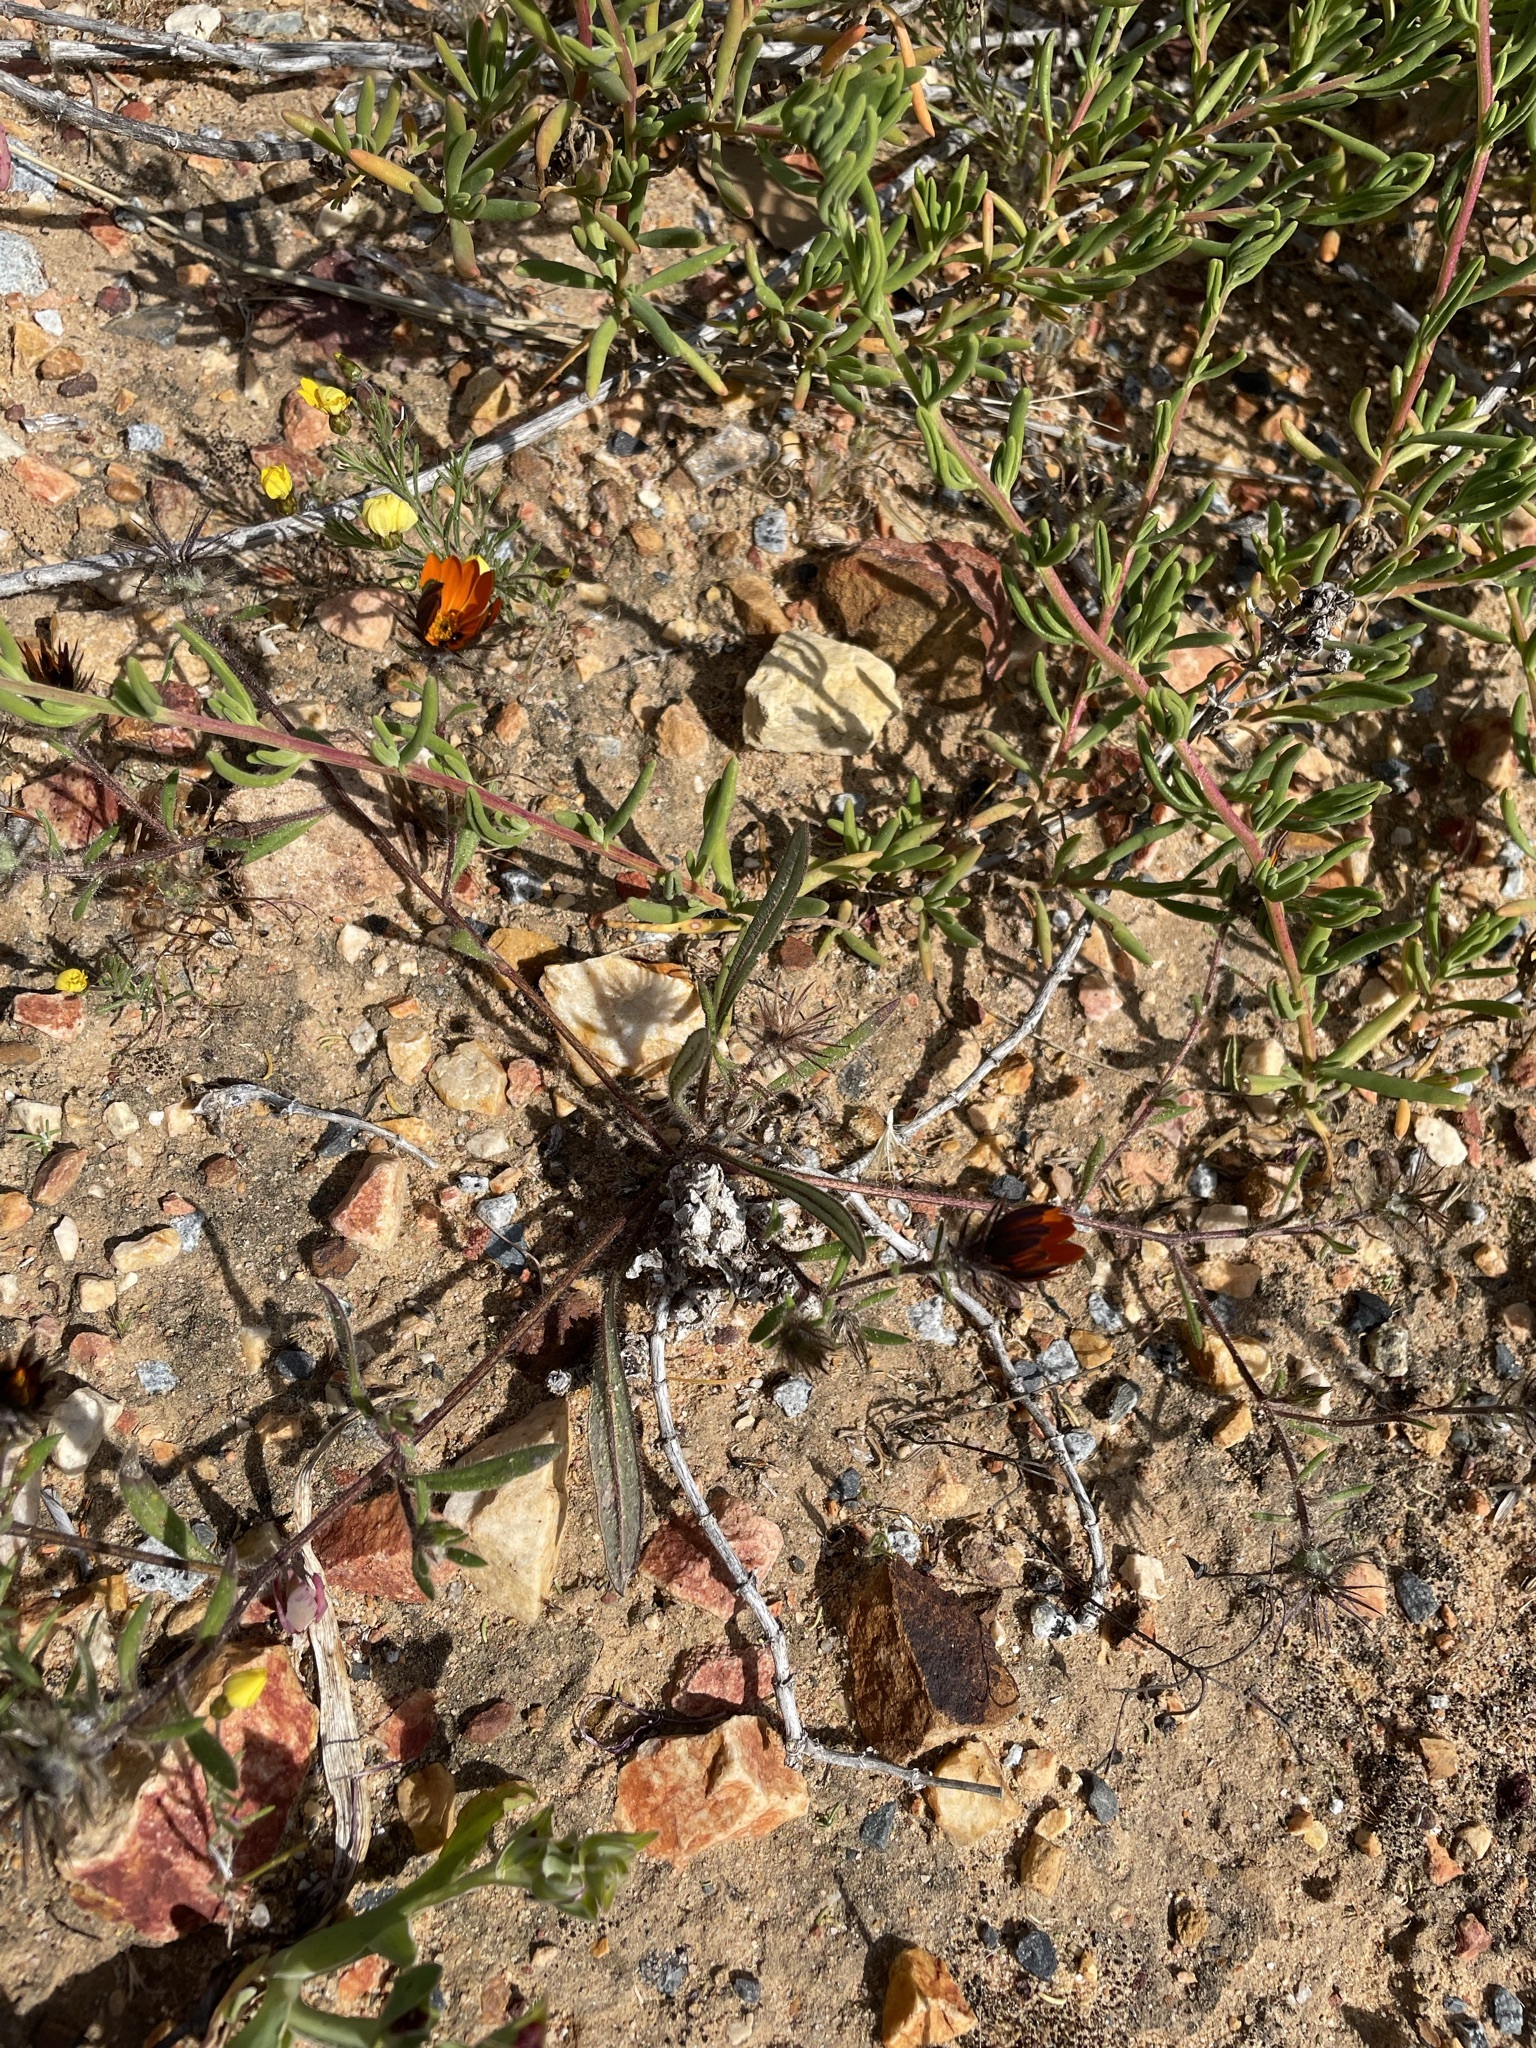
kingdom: Plantae
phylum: Tracheophyta
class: Magnoliopsida
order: Asterales
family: Asteraceae
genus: Gorteria
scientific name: Gorteria diffusa
